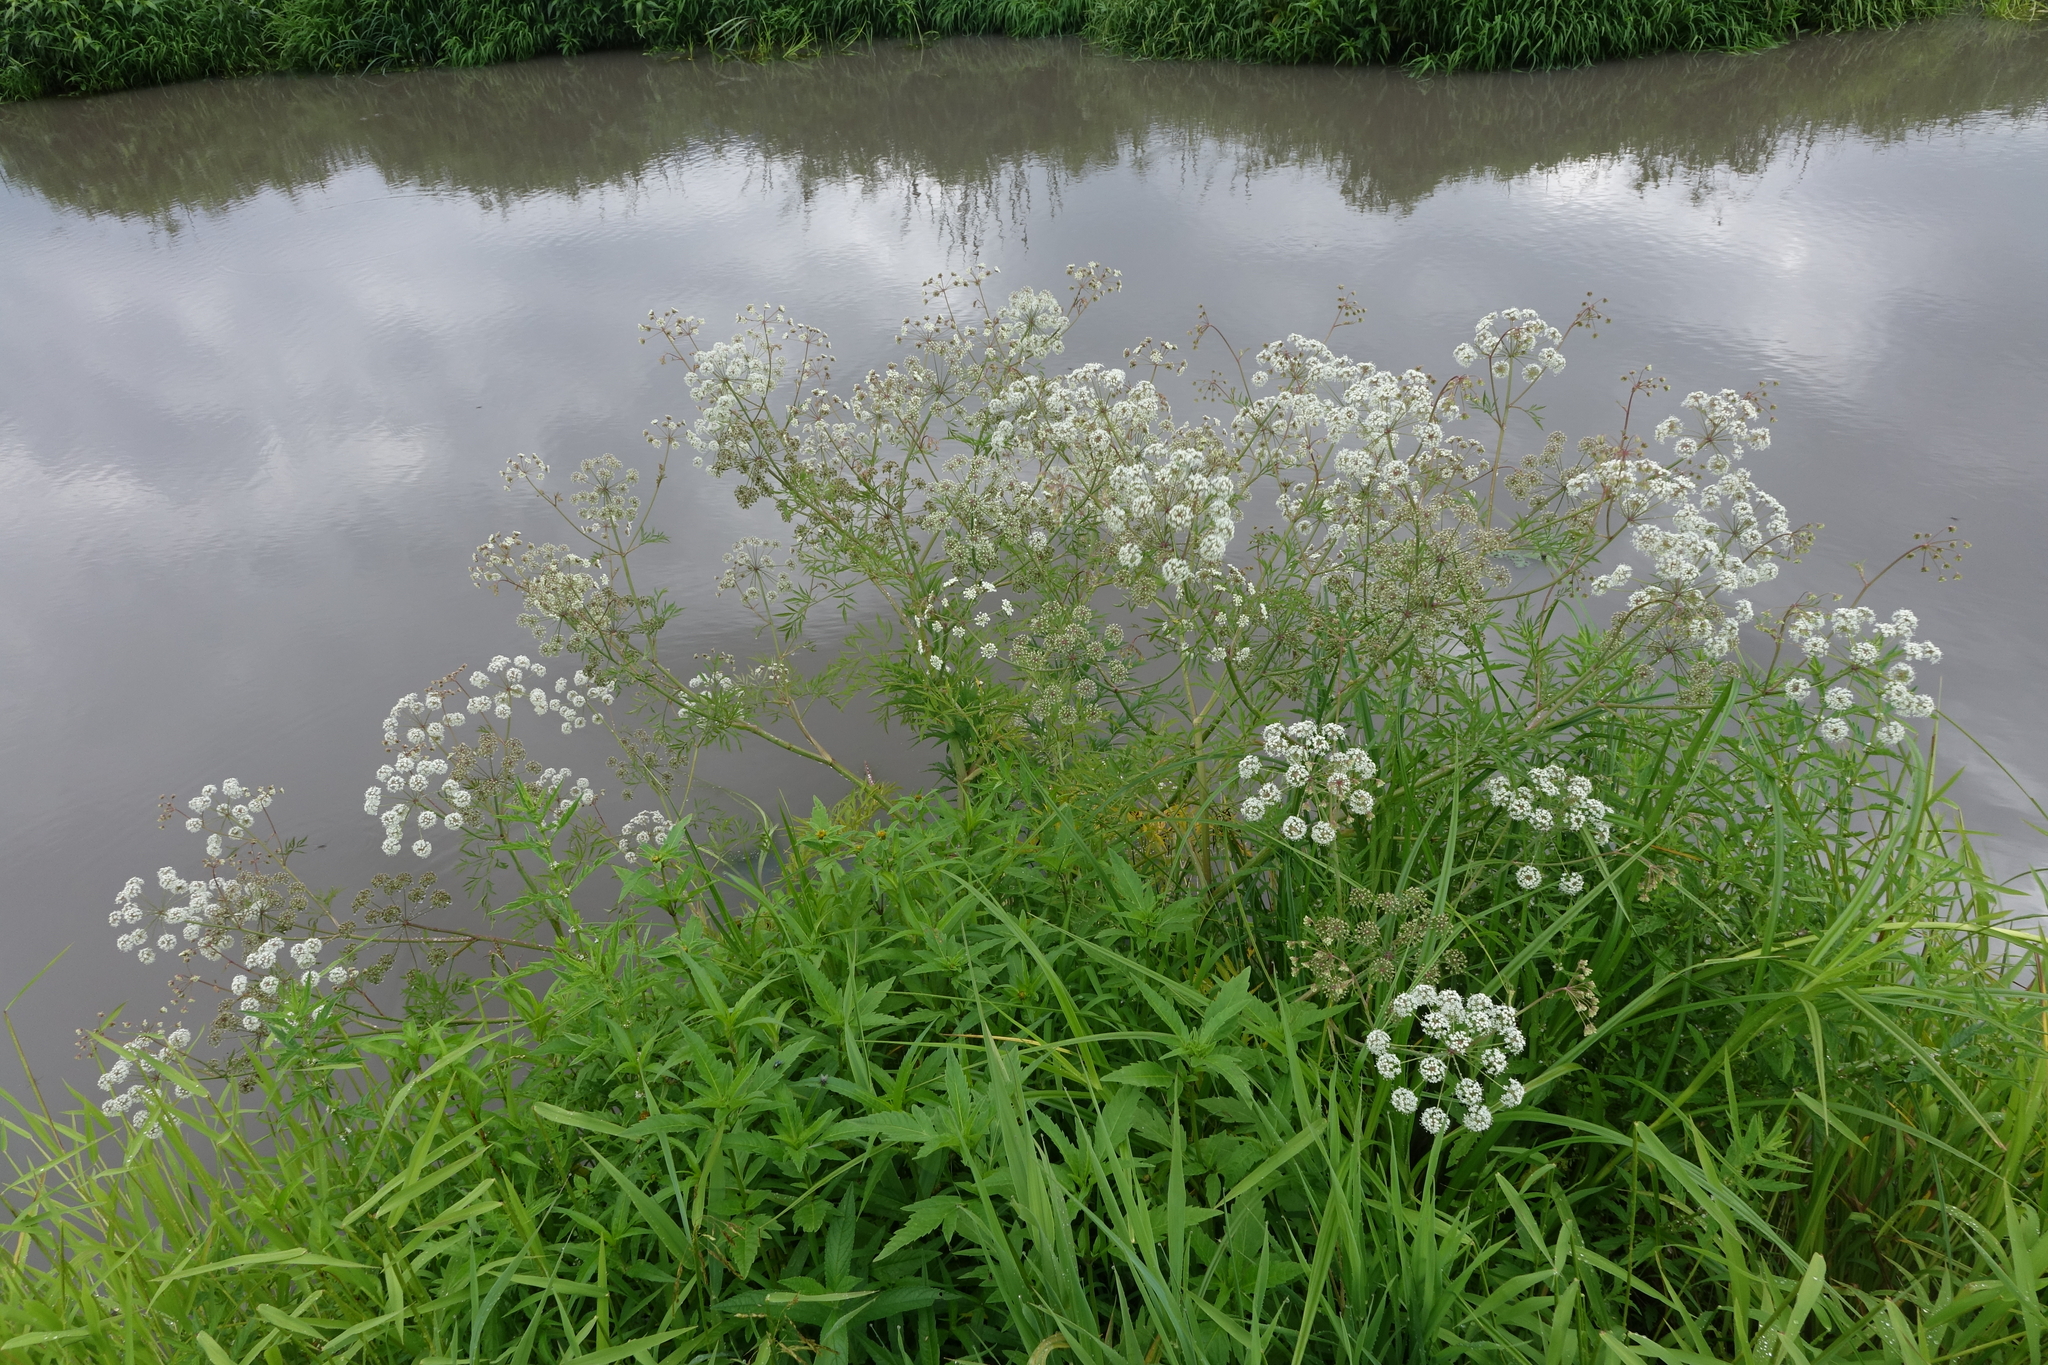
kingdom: Plantae
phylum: Tracheophyta
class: Magnoliopsida
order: Apiales
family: Apiaceae
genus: Cicuta
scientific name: Cicuta virosa
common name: Cowbane
